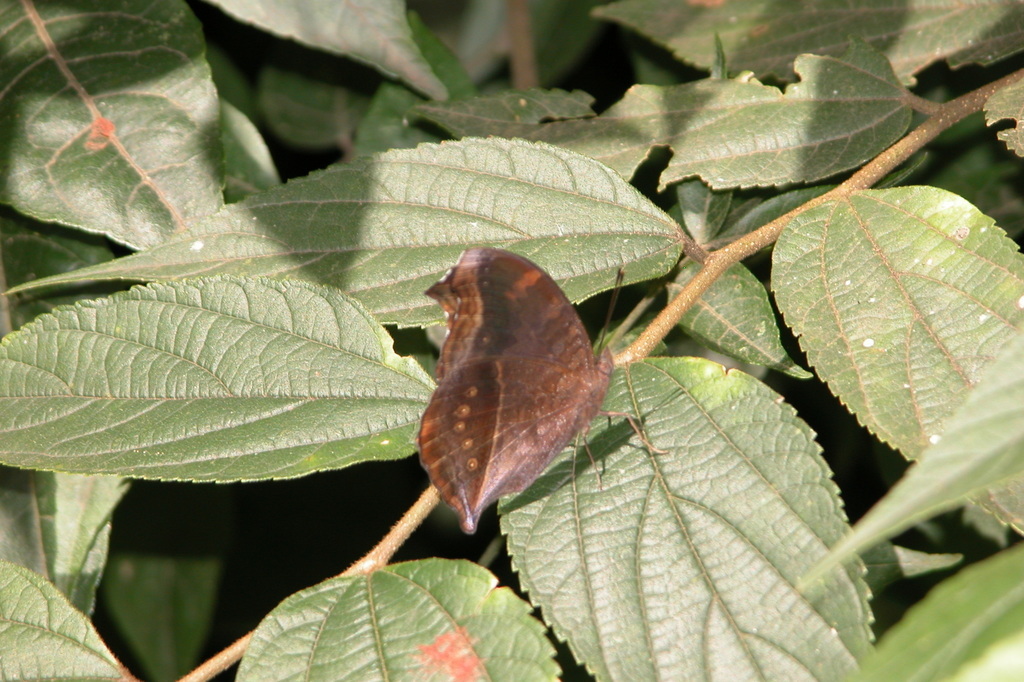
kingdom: Animalia
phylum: Arthropoda
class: Insecta
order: Lepidoptera
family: Nymphalidae
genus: Junonia
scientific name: Junonia iphita
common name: Chocolate pansy
